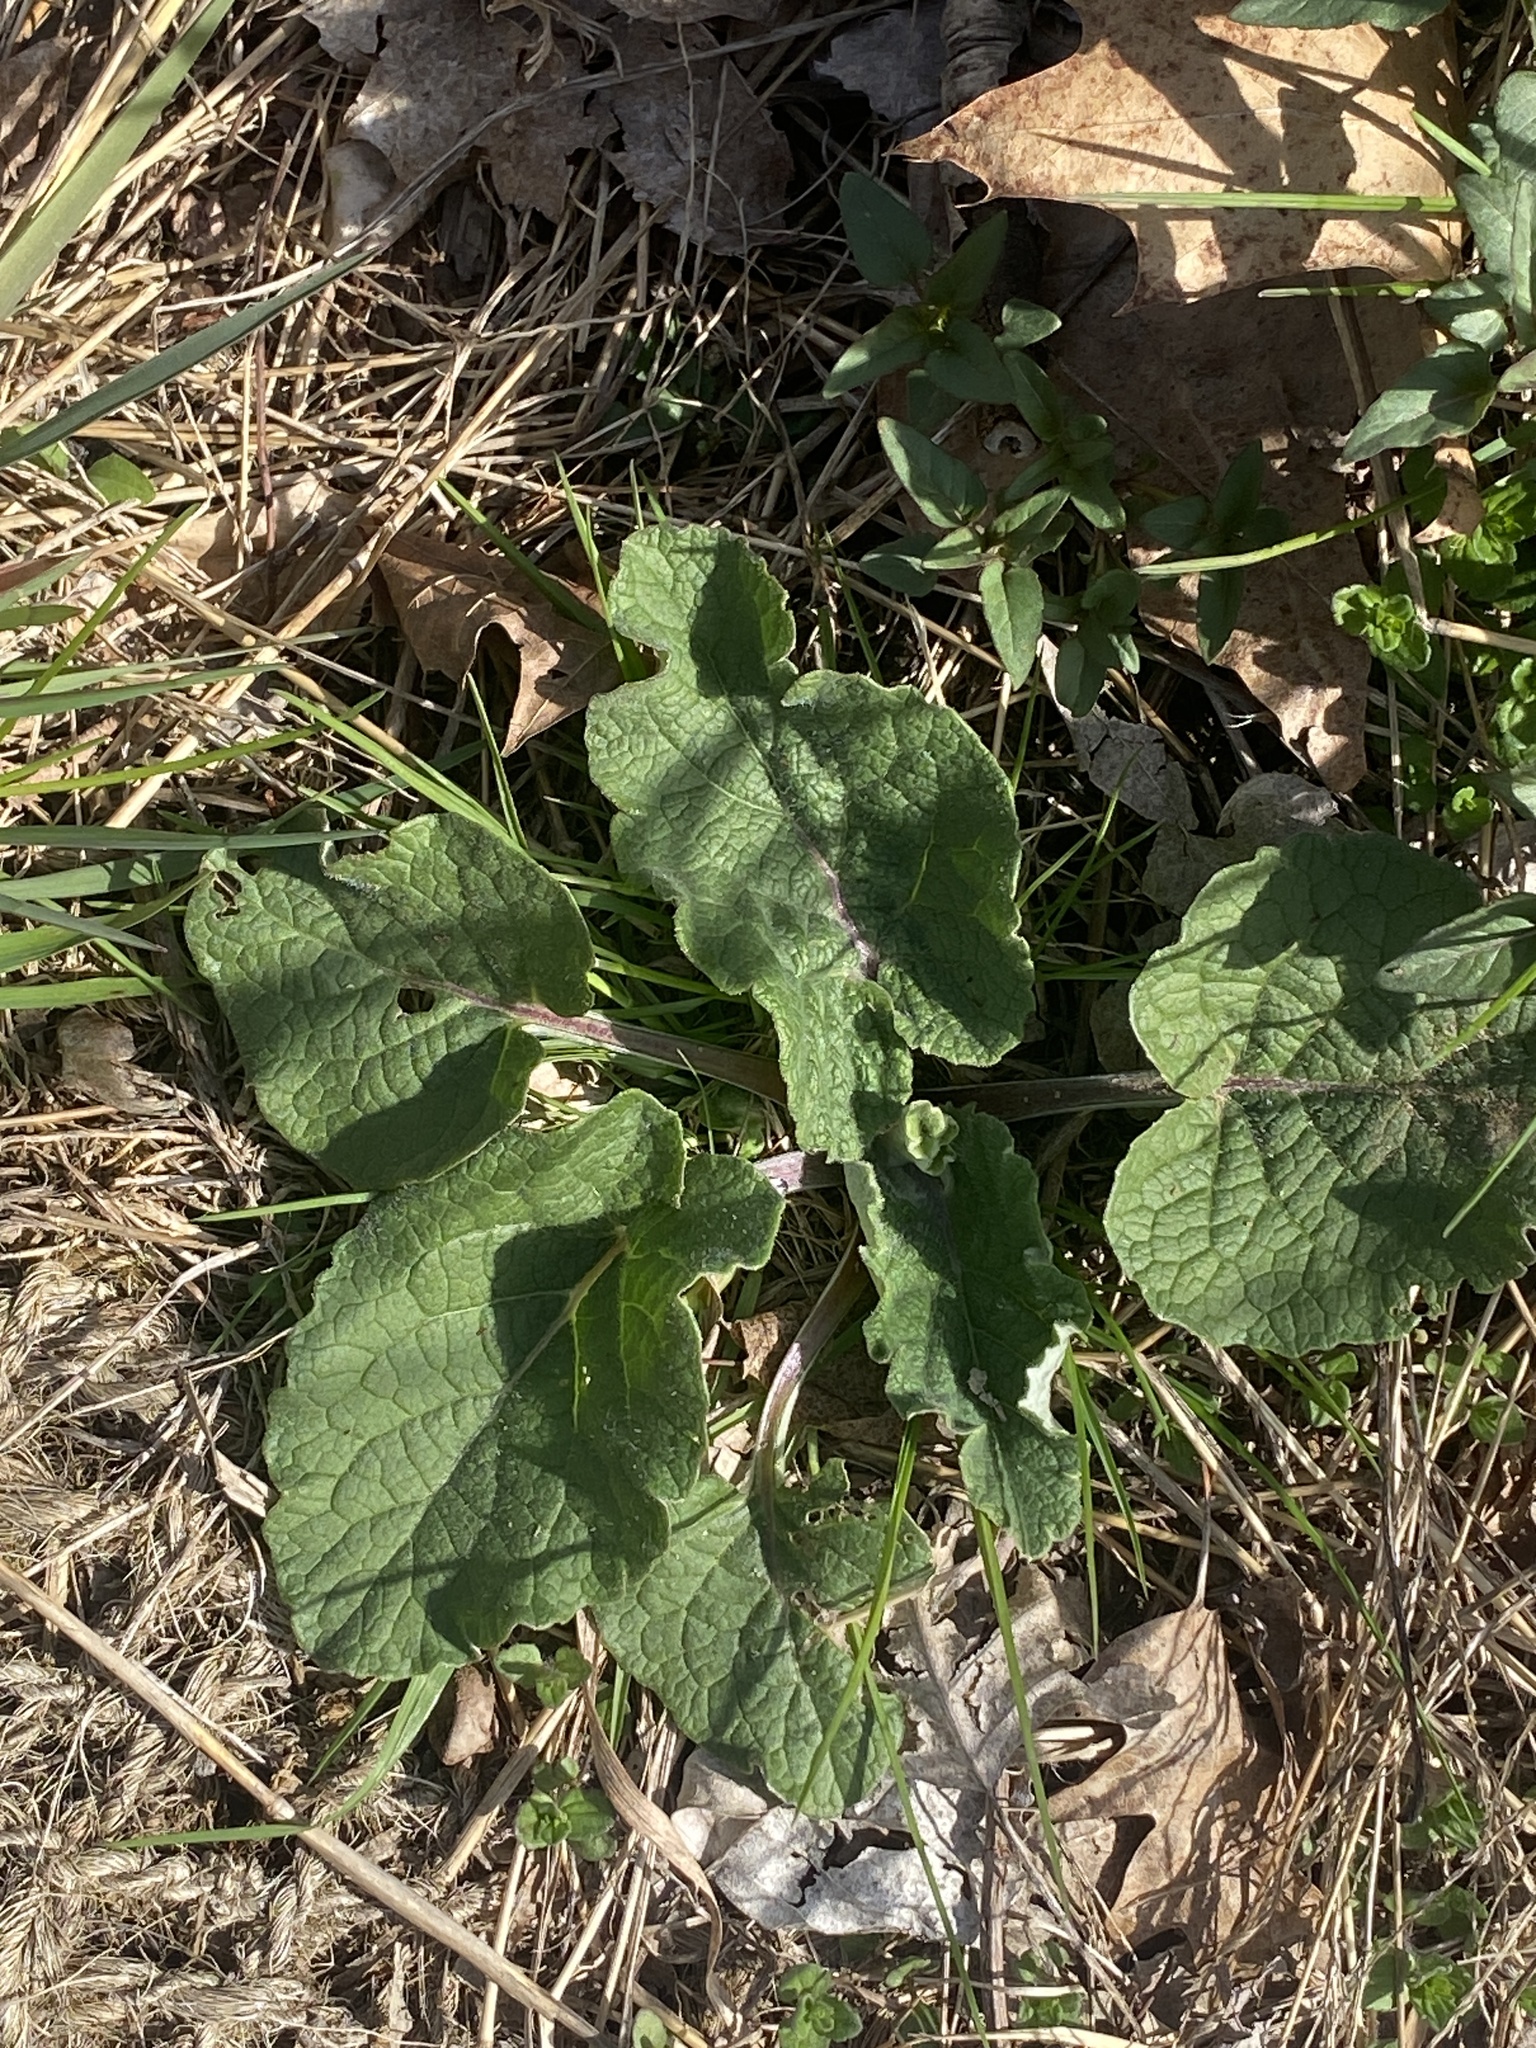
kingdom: Plantae
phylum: Tracheophyta
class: Magnoliopsida
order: Asterales
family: Asteraceae
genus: Arctium
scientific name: Arctium minus
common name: Lesser burdock
